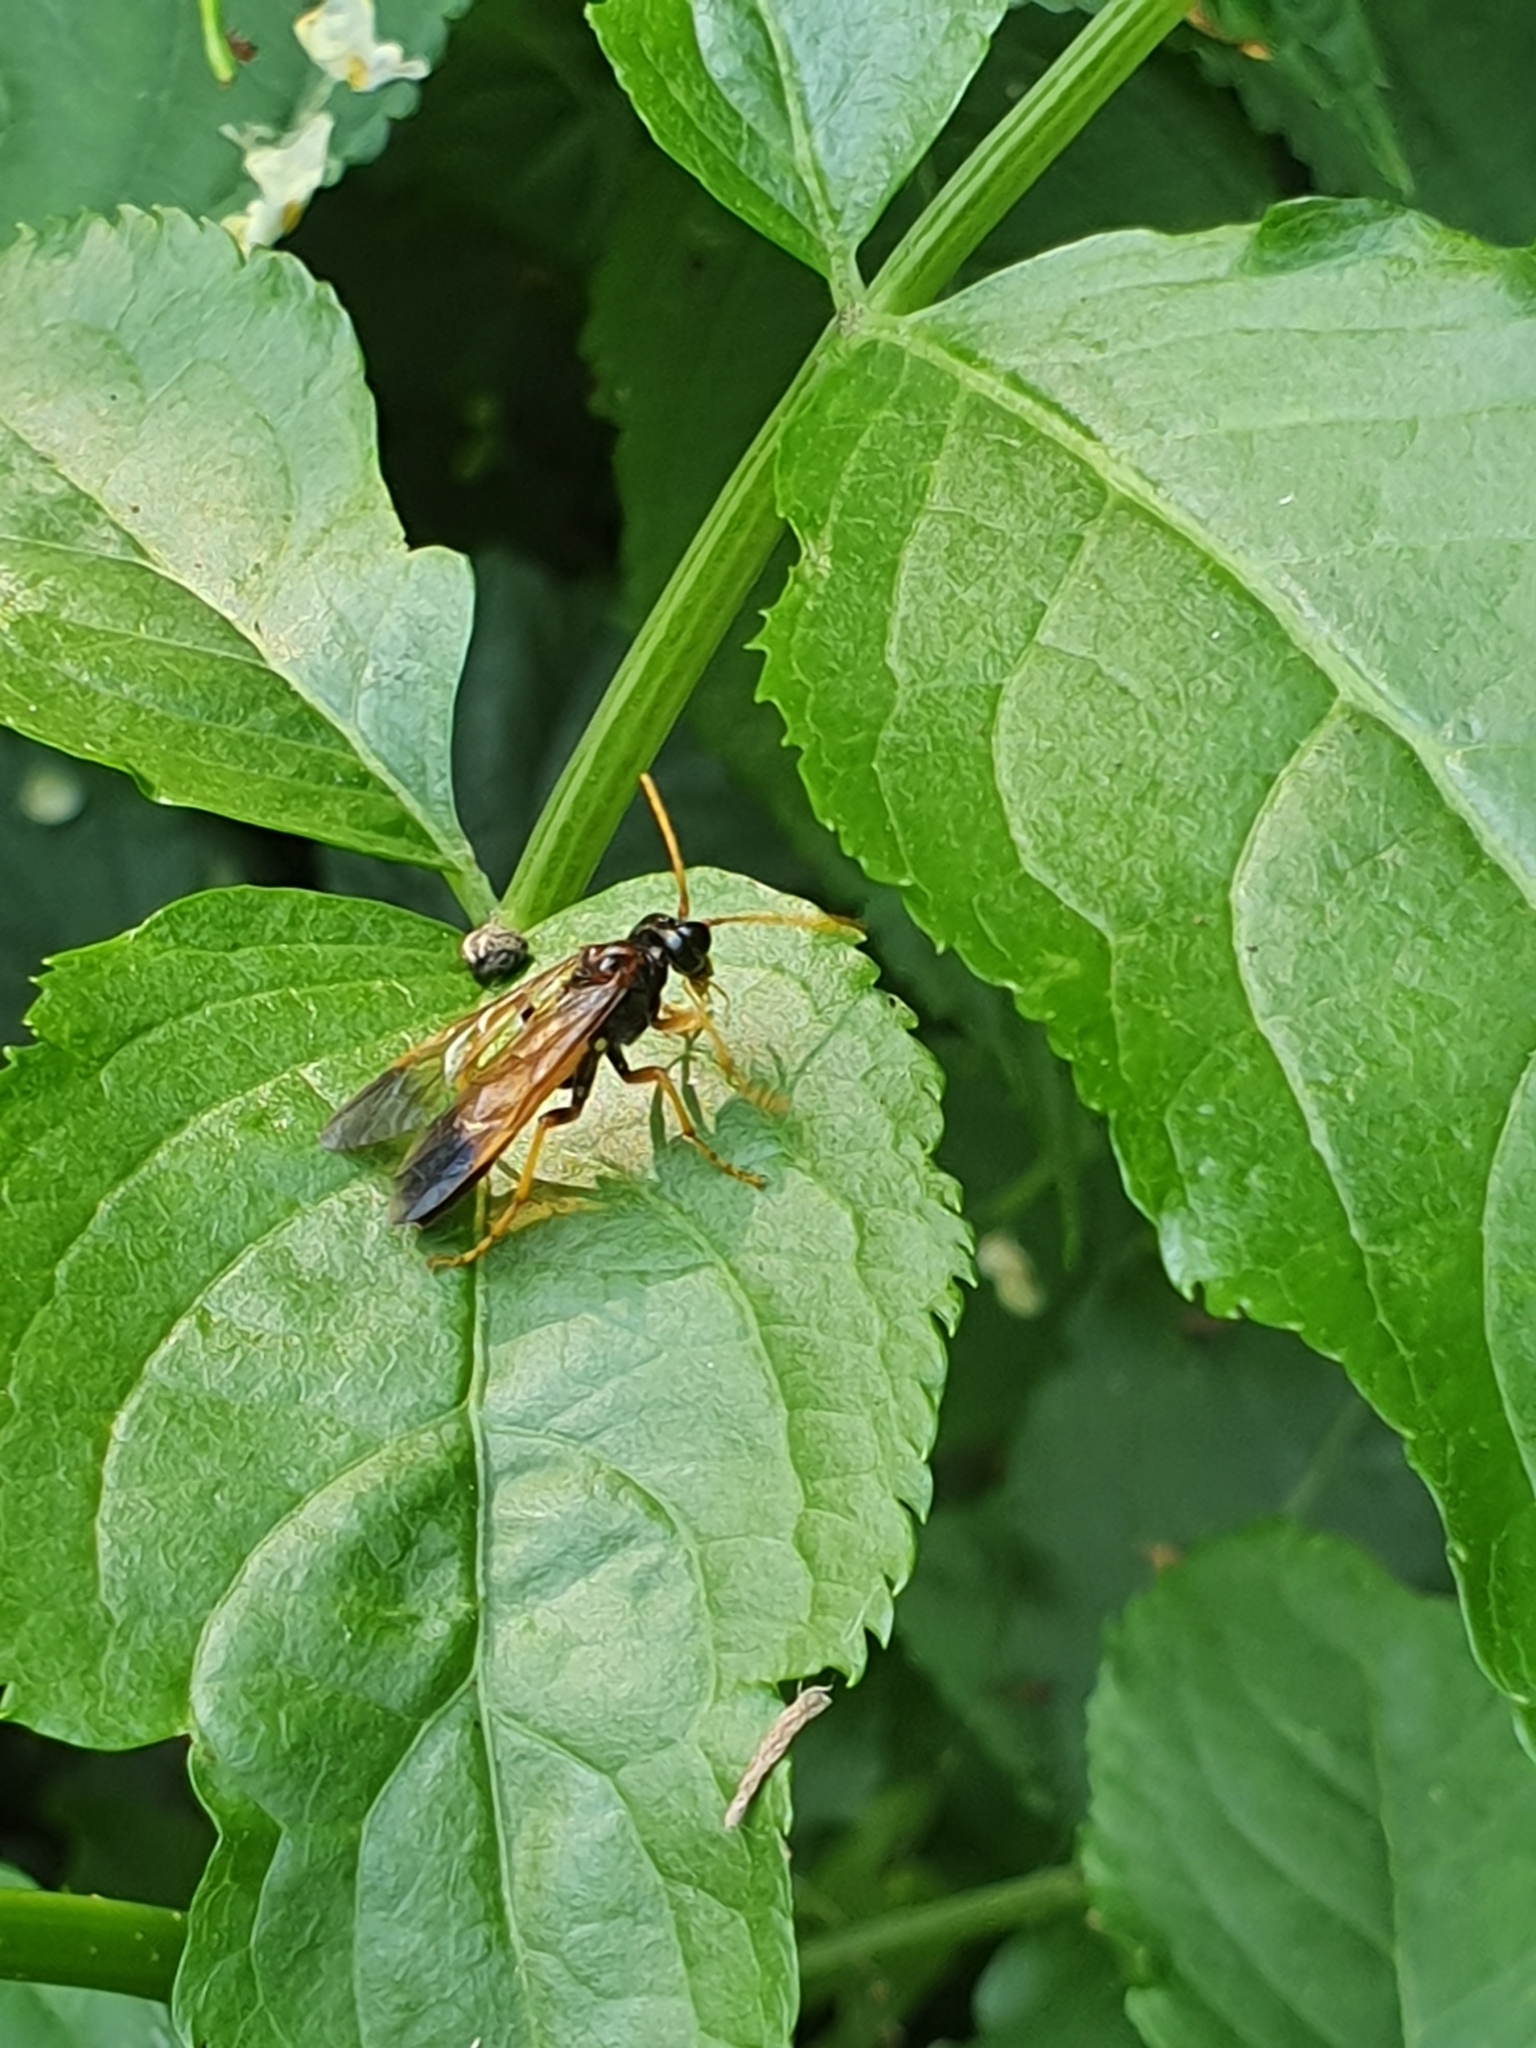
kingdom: Animalia
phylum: Arthropoda
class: Insecta
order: Hymenoptera
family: Tenthredinidae
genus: Tenthredo
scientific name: Tenthredo campestris
